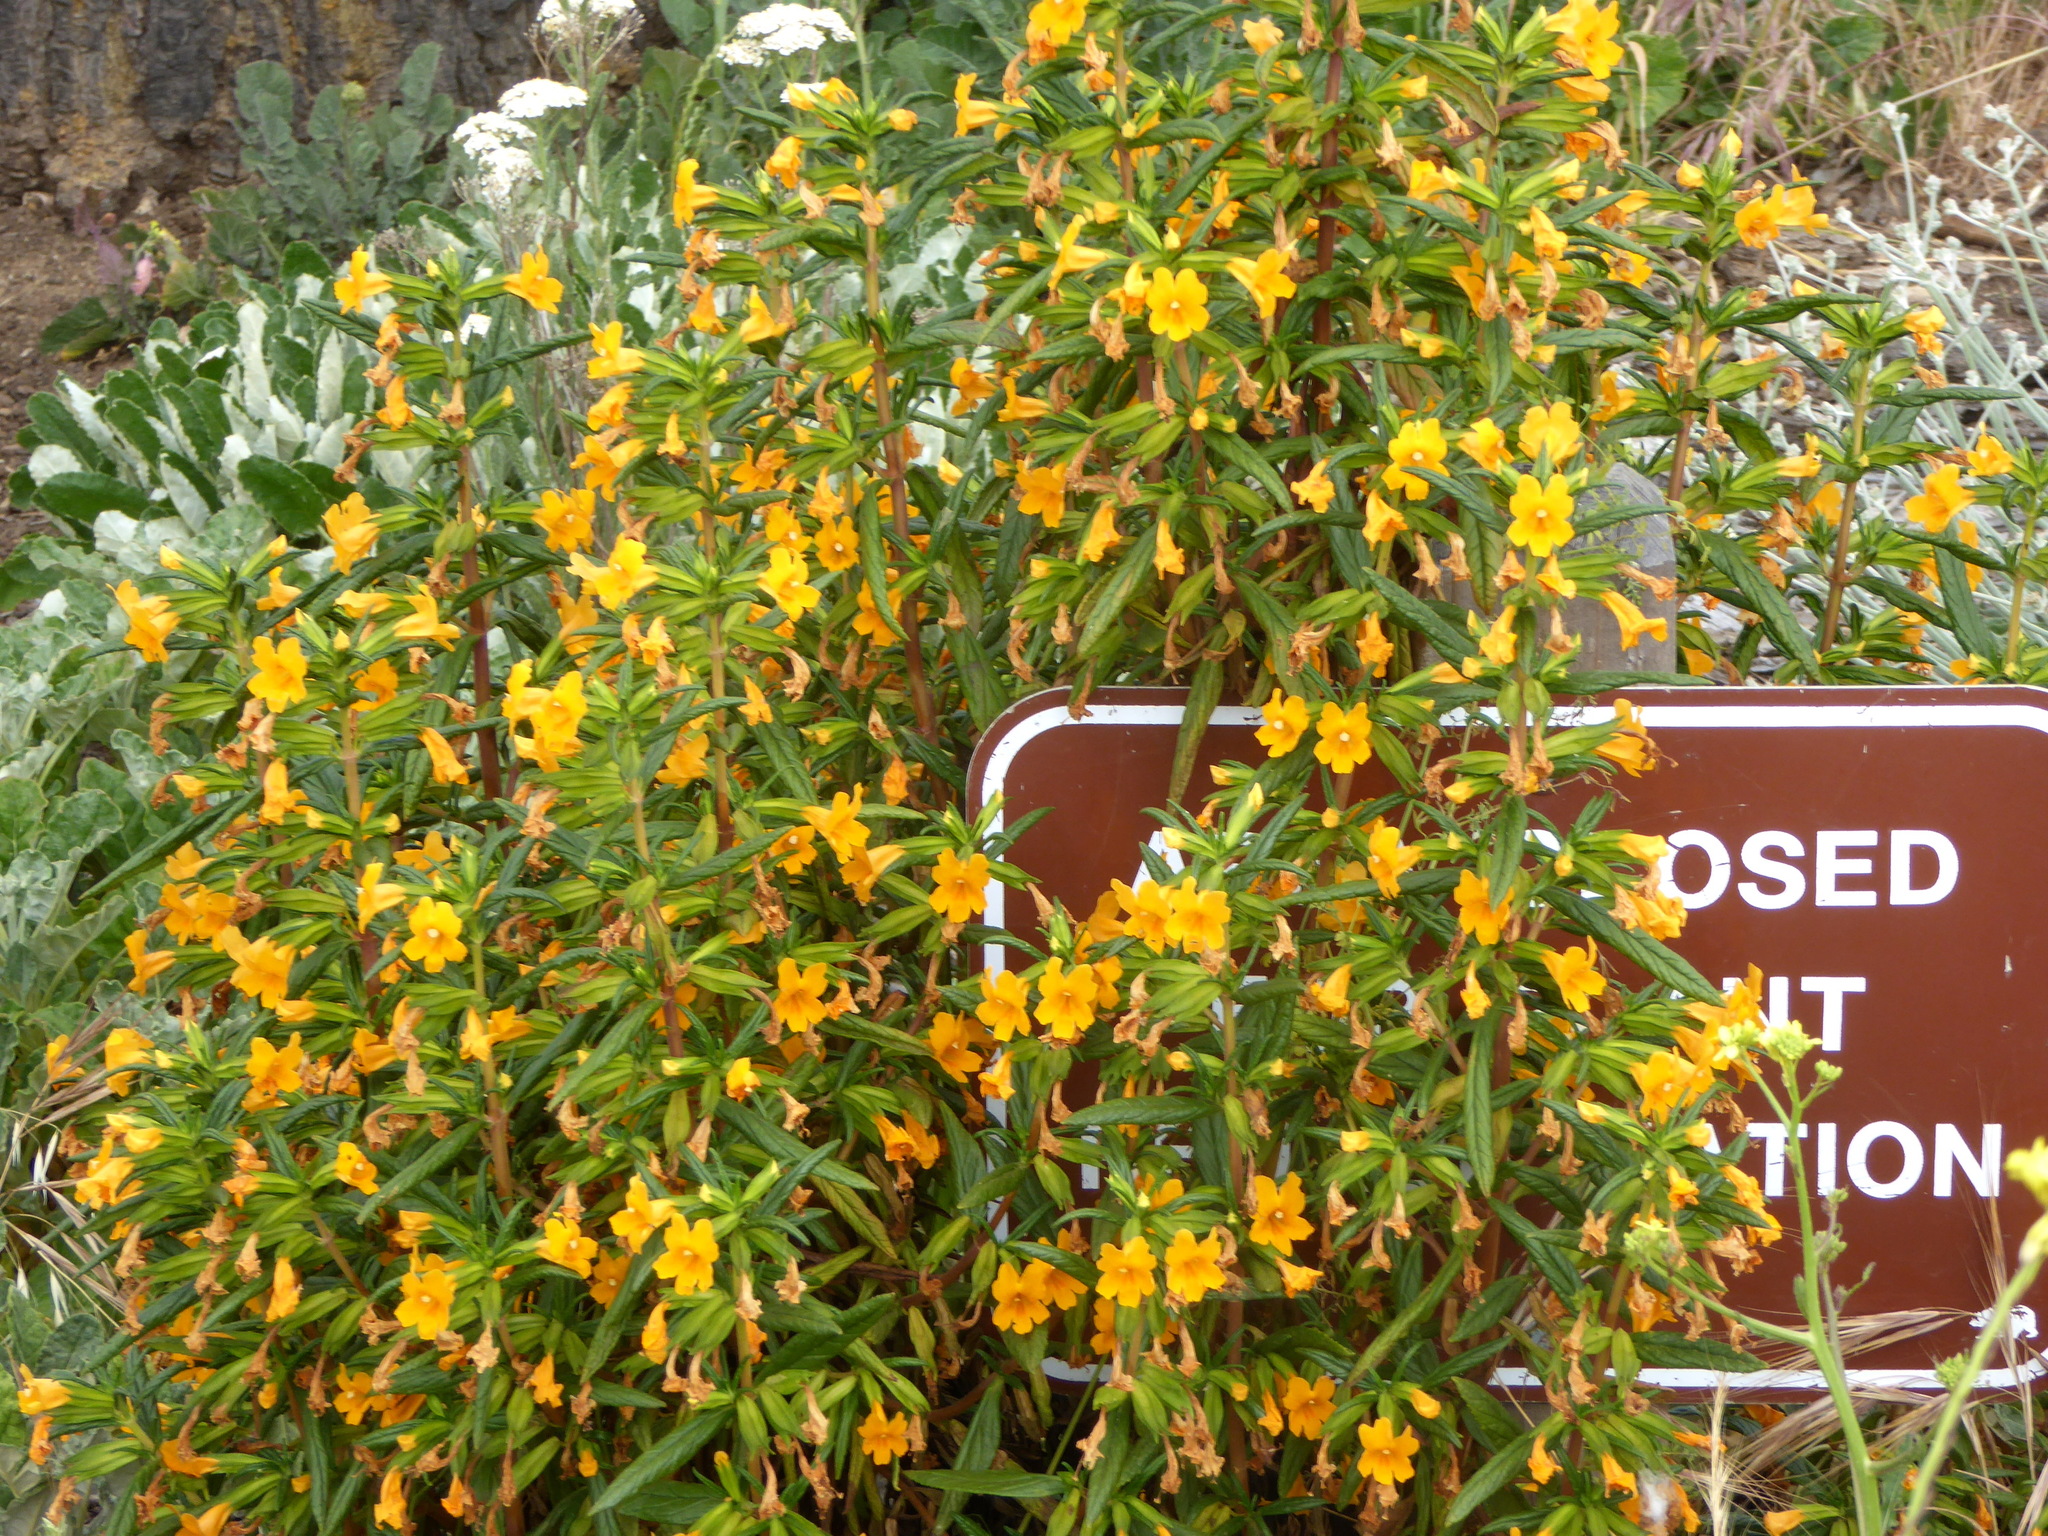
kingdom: Plantae
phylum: Tracheophyta
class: Magnoliopsida
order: Lamiales
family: Phrymaceae
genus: Diplacus
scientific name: Diplacus aurantiacus
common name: Bush monkey-flower
